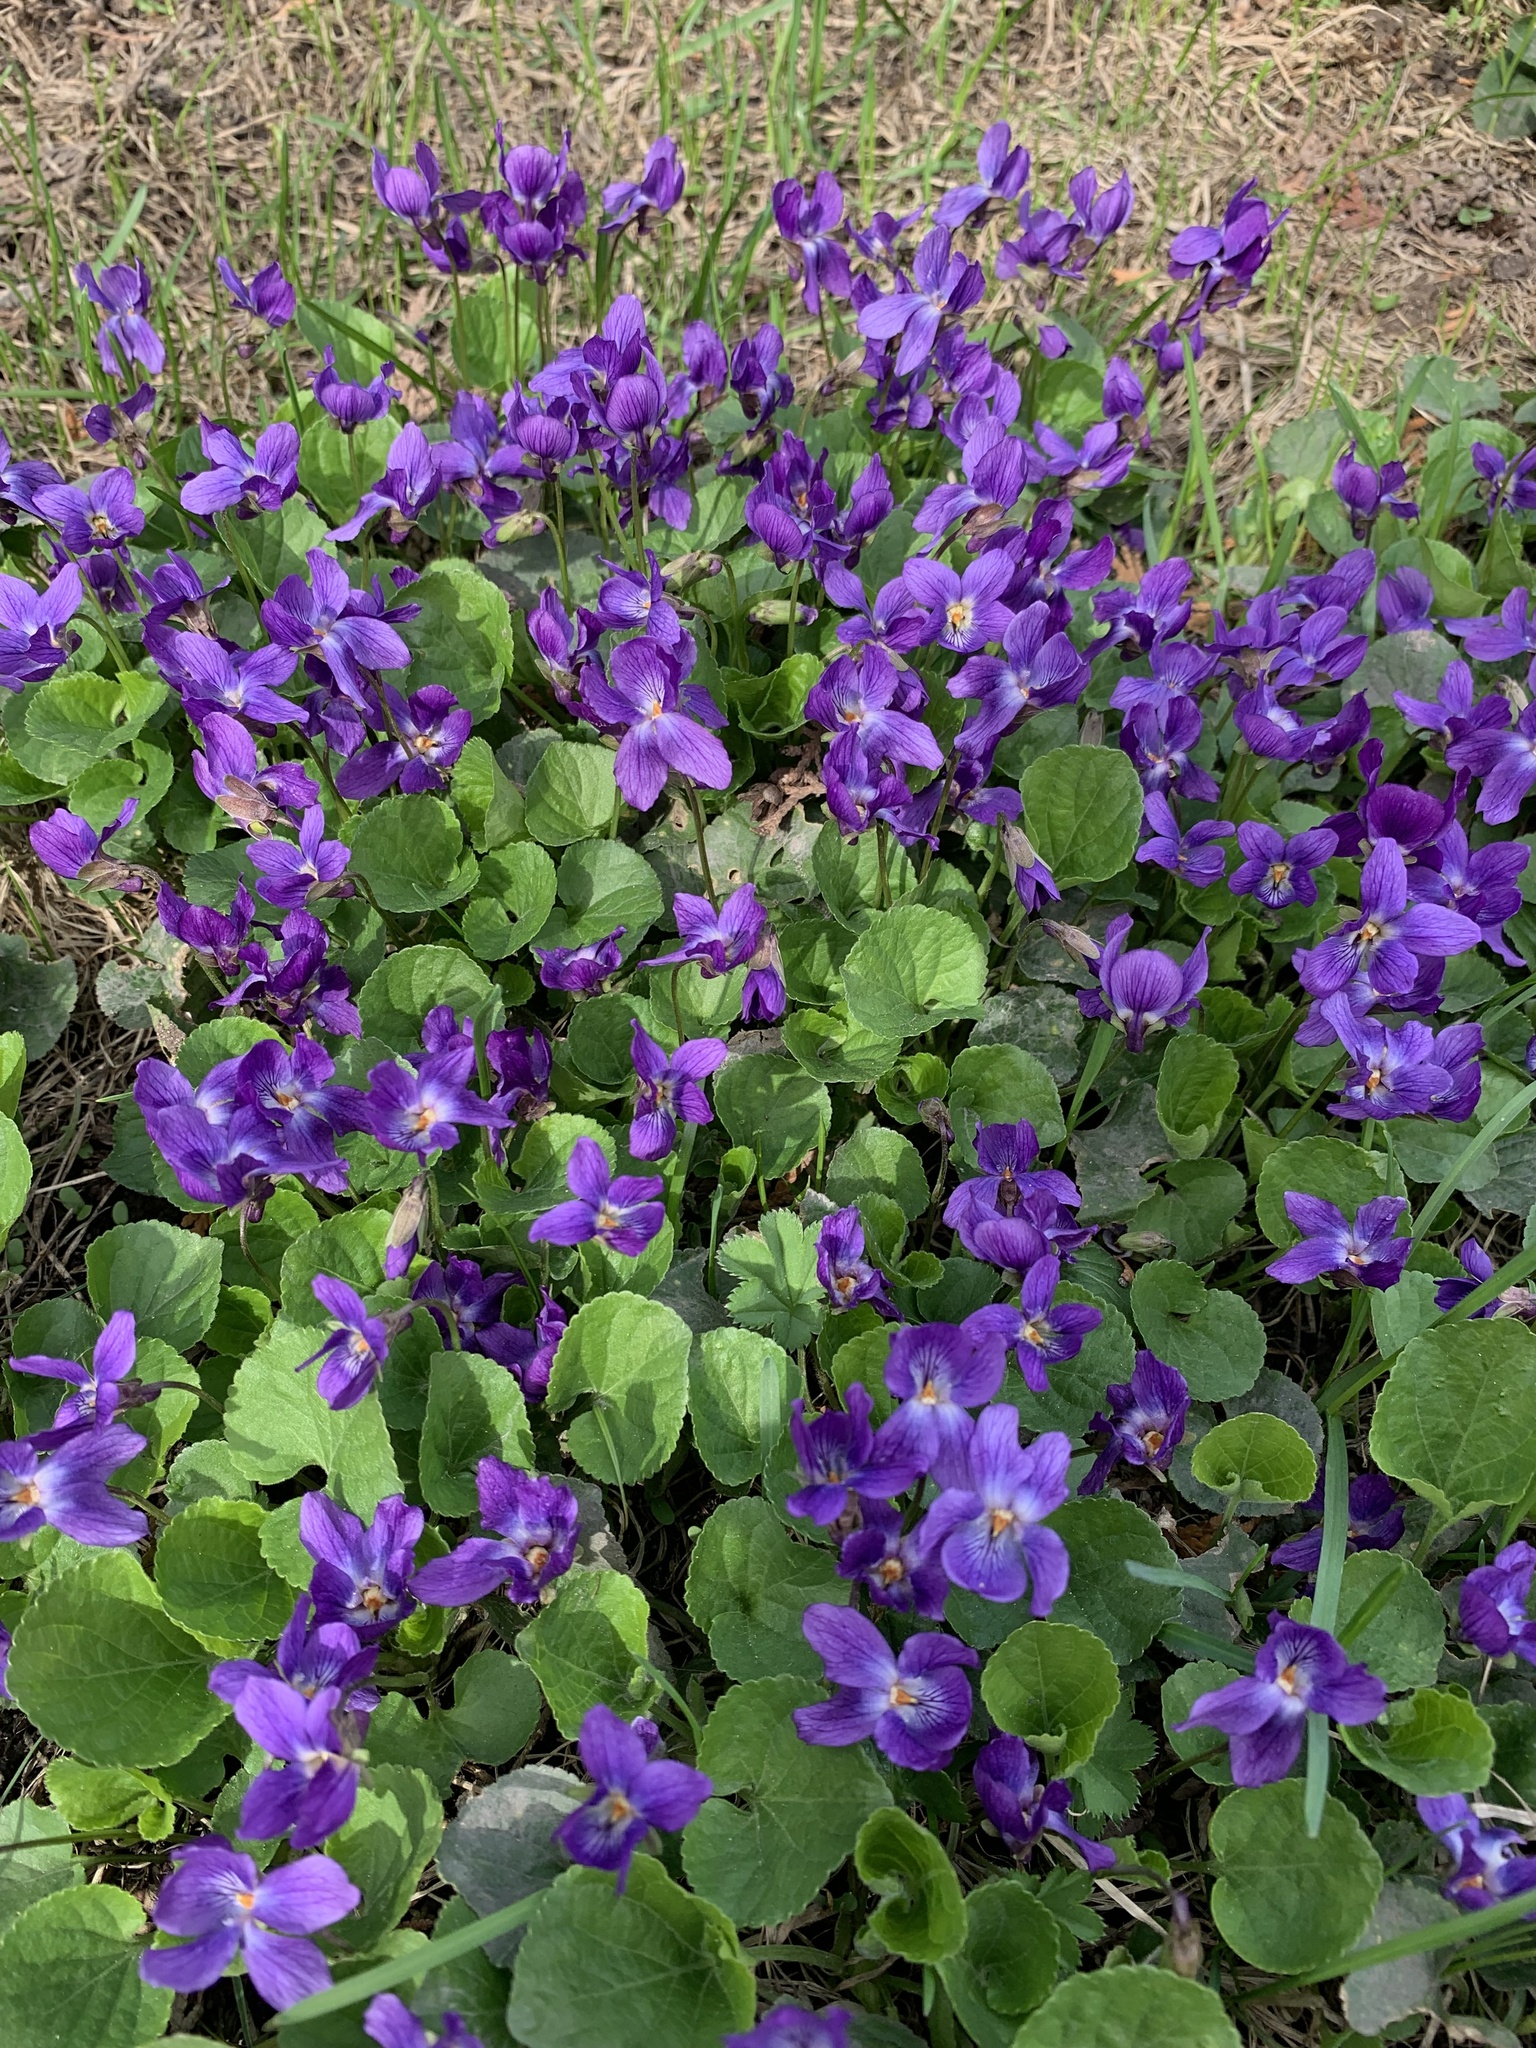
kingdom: Plantae
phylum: Tracheophyta
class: Magnoliopsida
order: Malpighiales
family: Violaceae
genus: Viola
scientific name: Viola odorata
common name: Sweet violet
